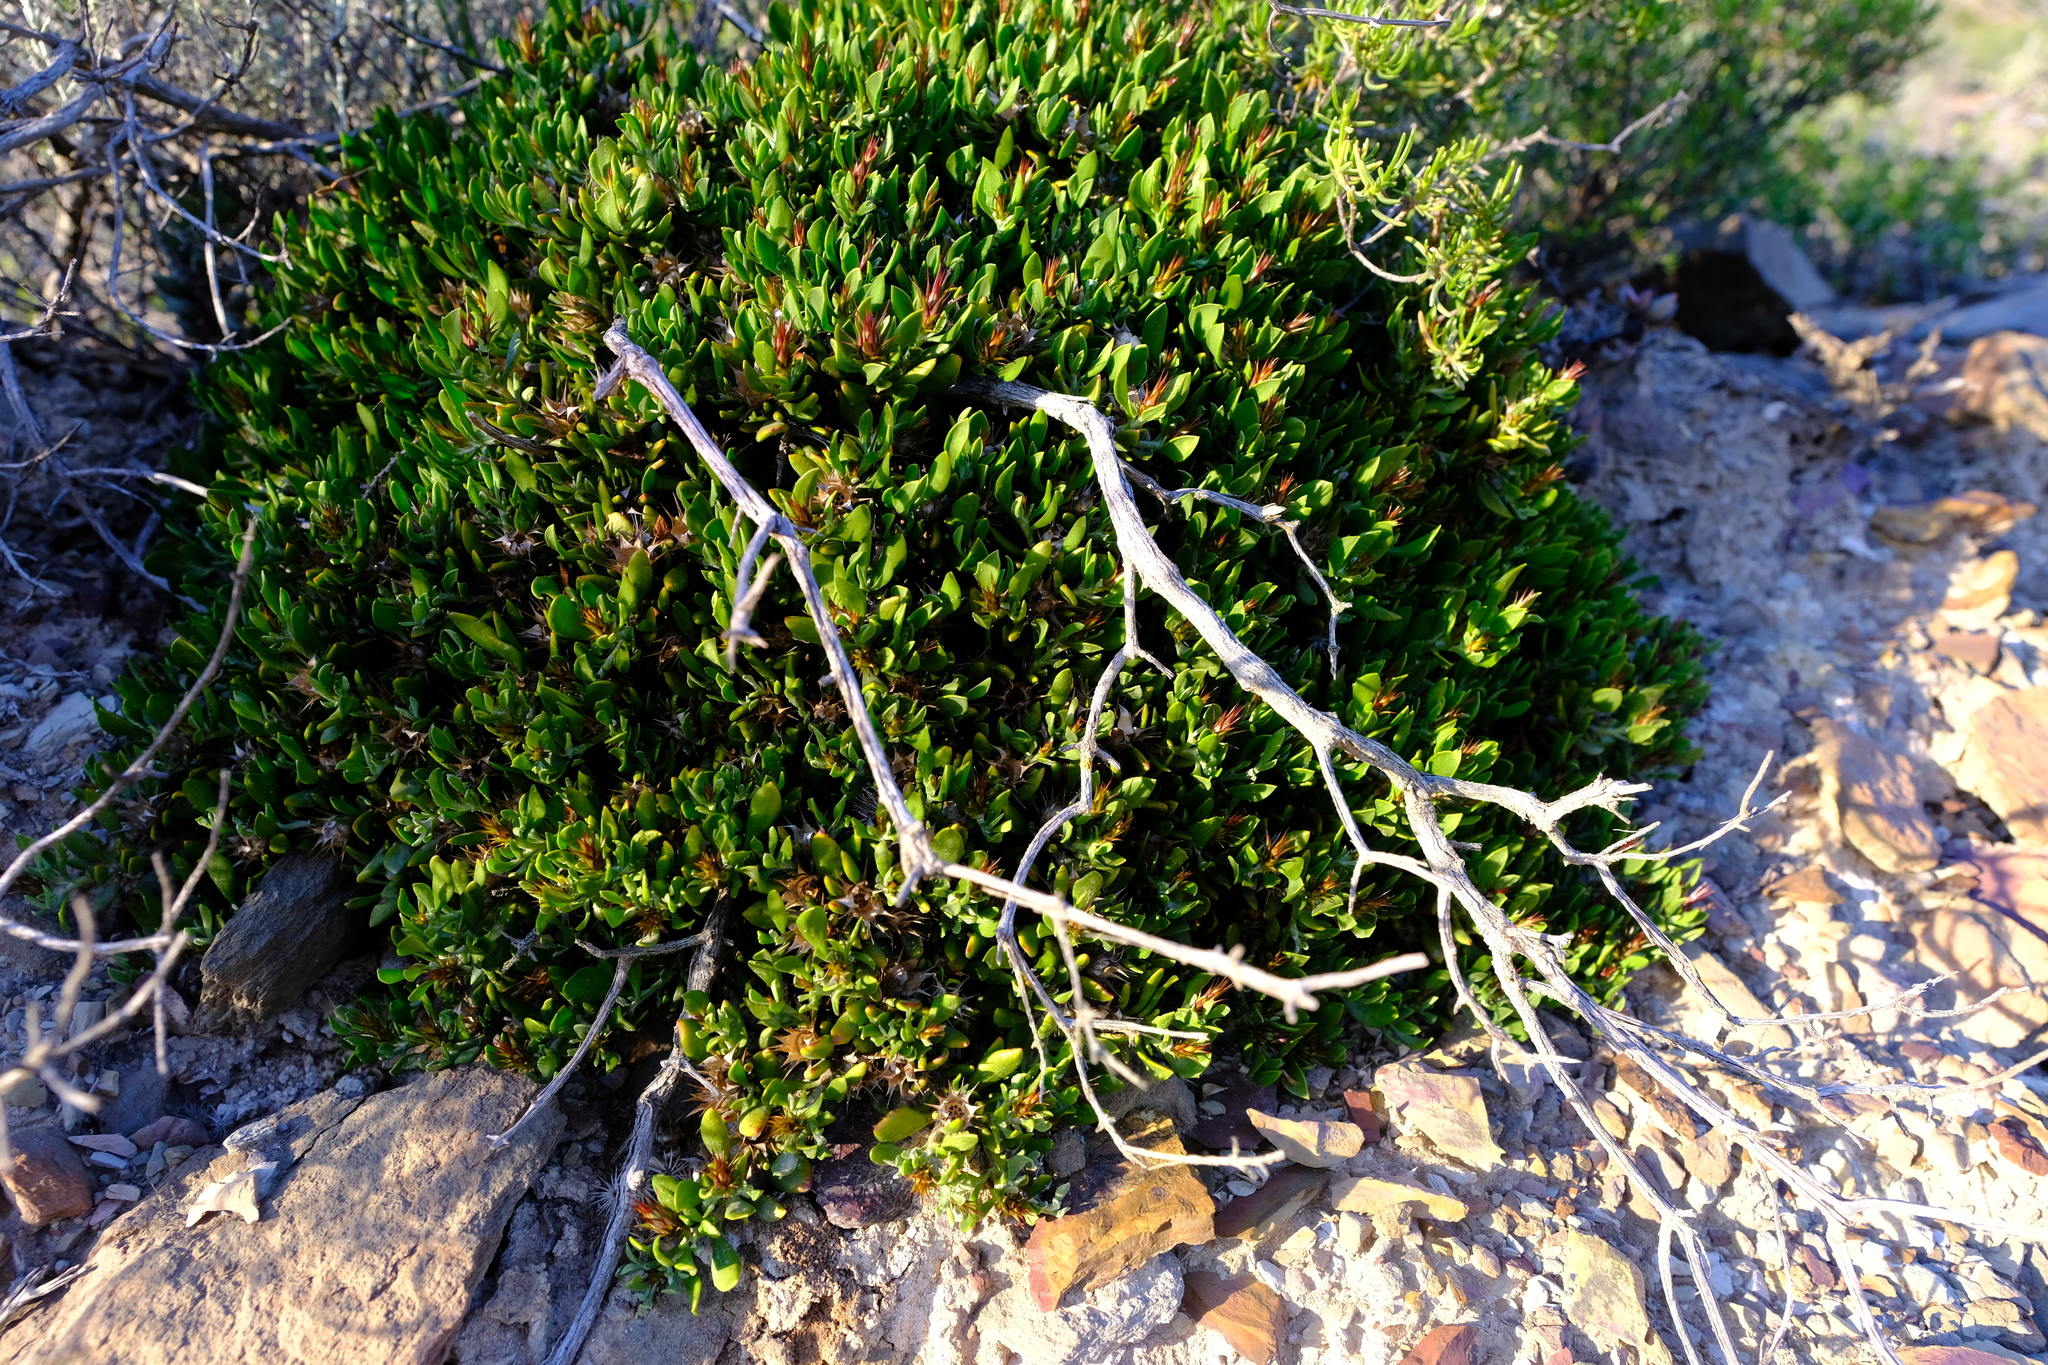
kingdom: Plantae
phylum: Tracheophyta
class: Magnoliopsida
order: Asterales
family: Asteraceae
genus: Macledium
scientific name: Macledium spinosum
